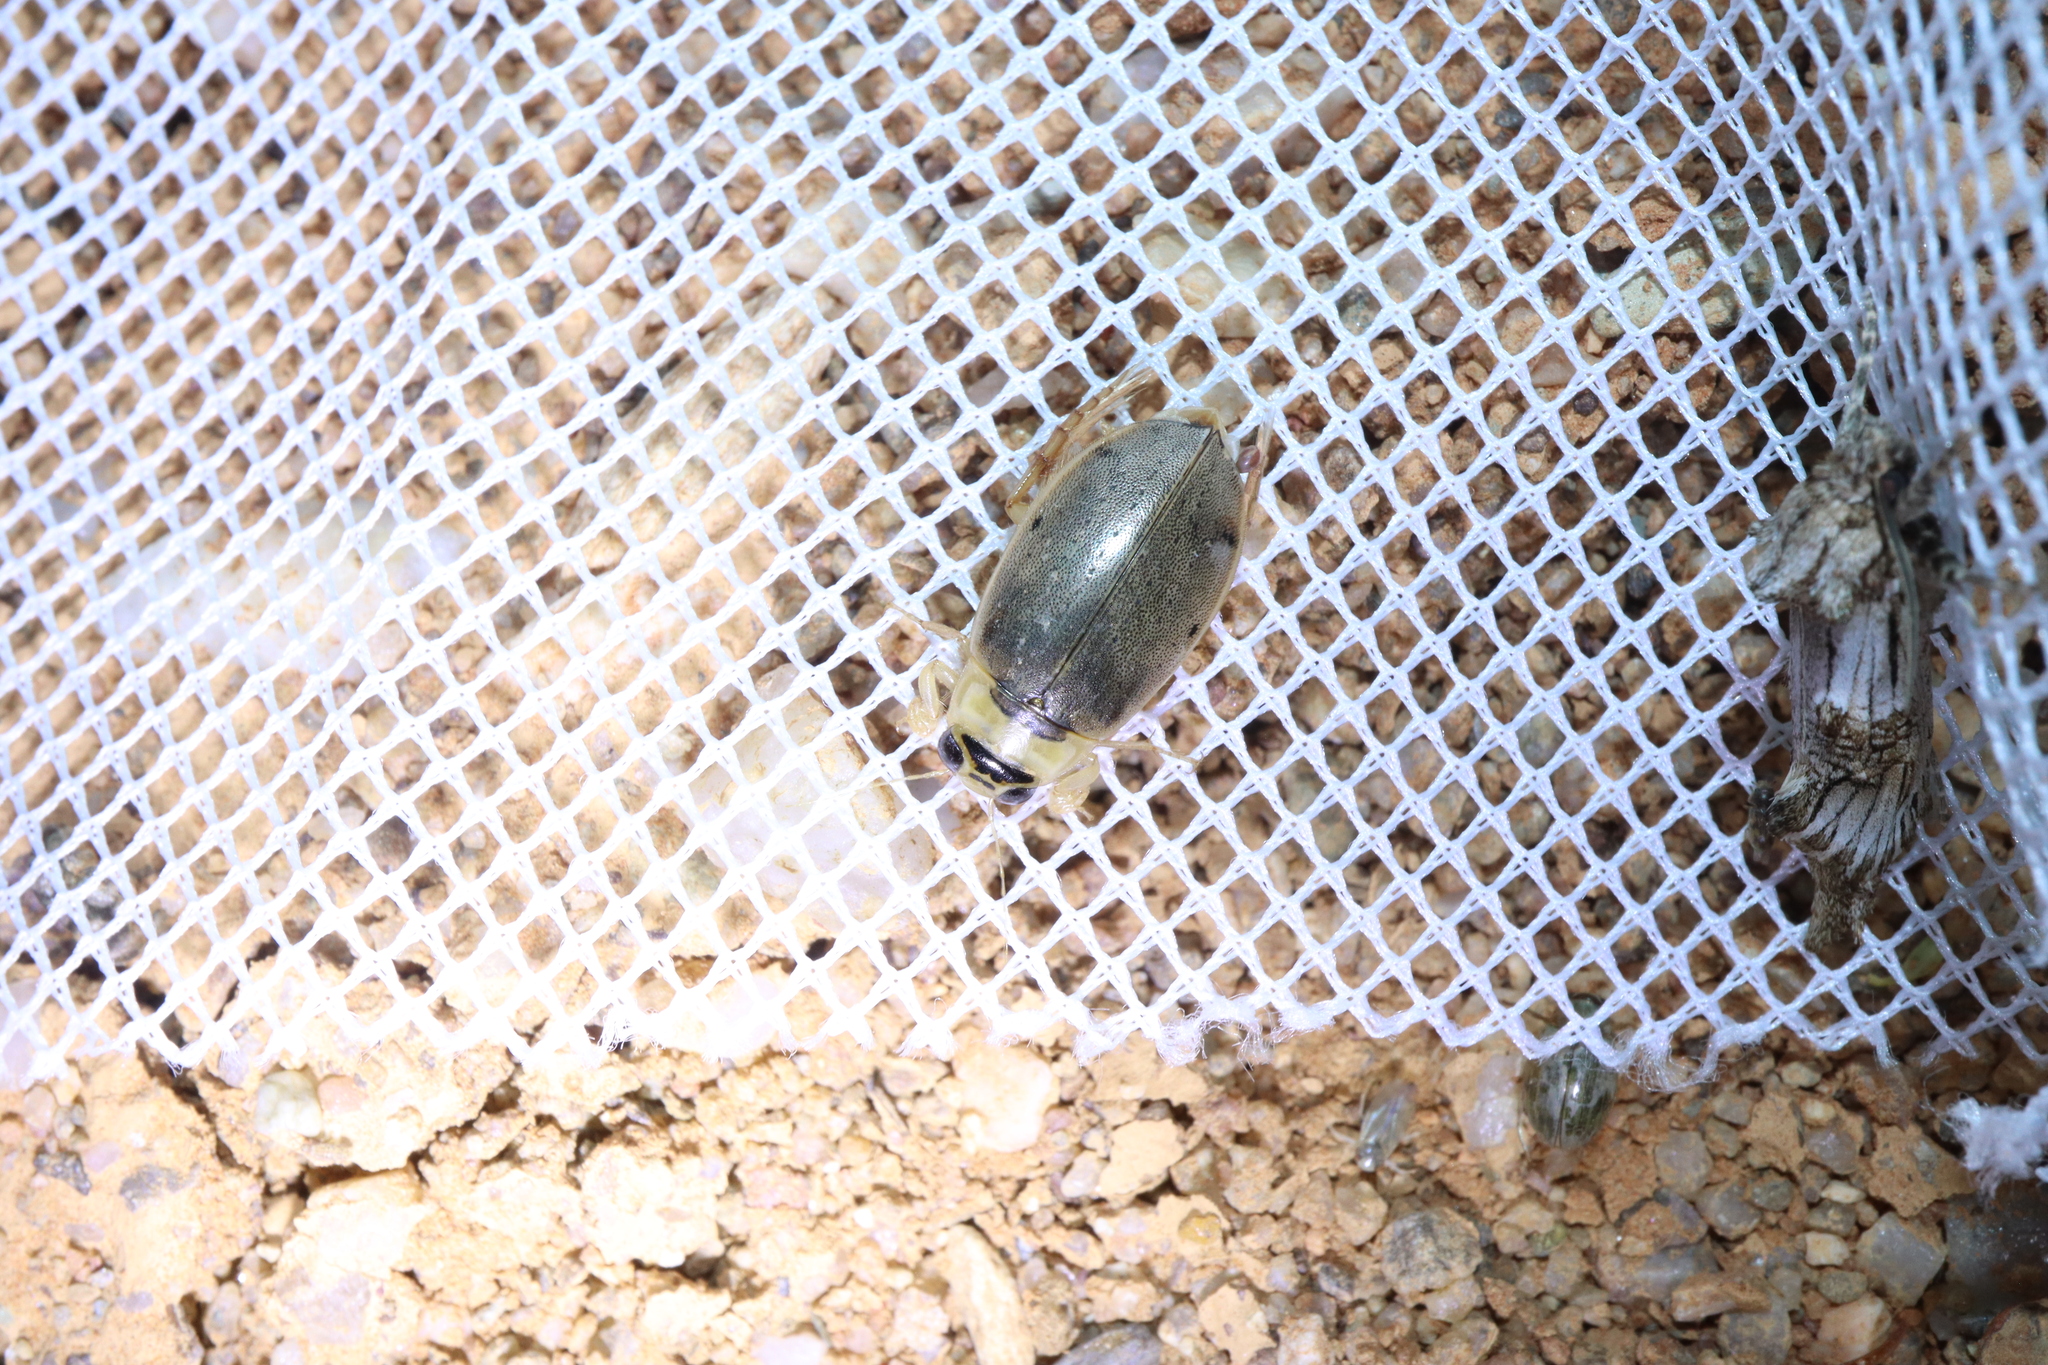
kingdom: Animalia
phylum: Arthropoda
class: Insecta
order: Coleoptera
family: Dytiscidae
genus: Eretes
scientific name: Eretes australis
